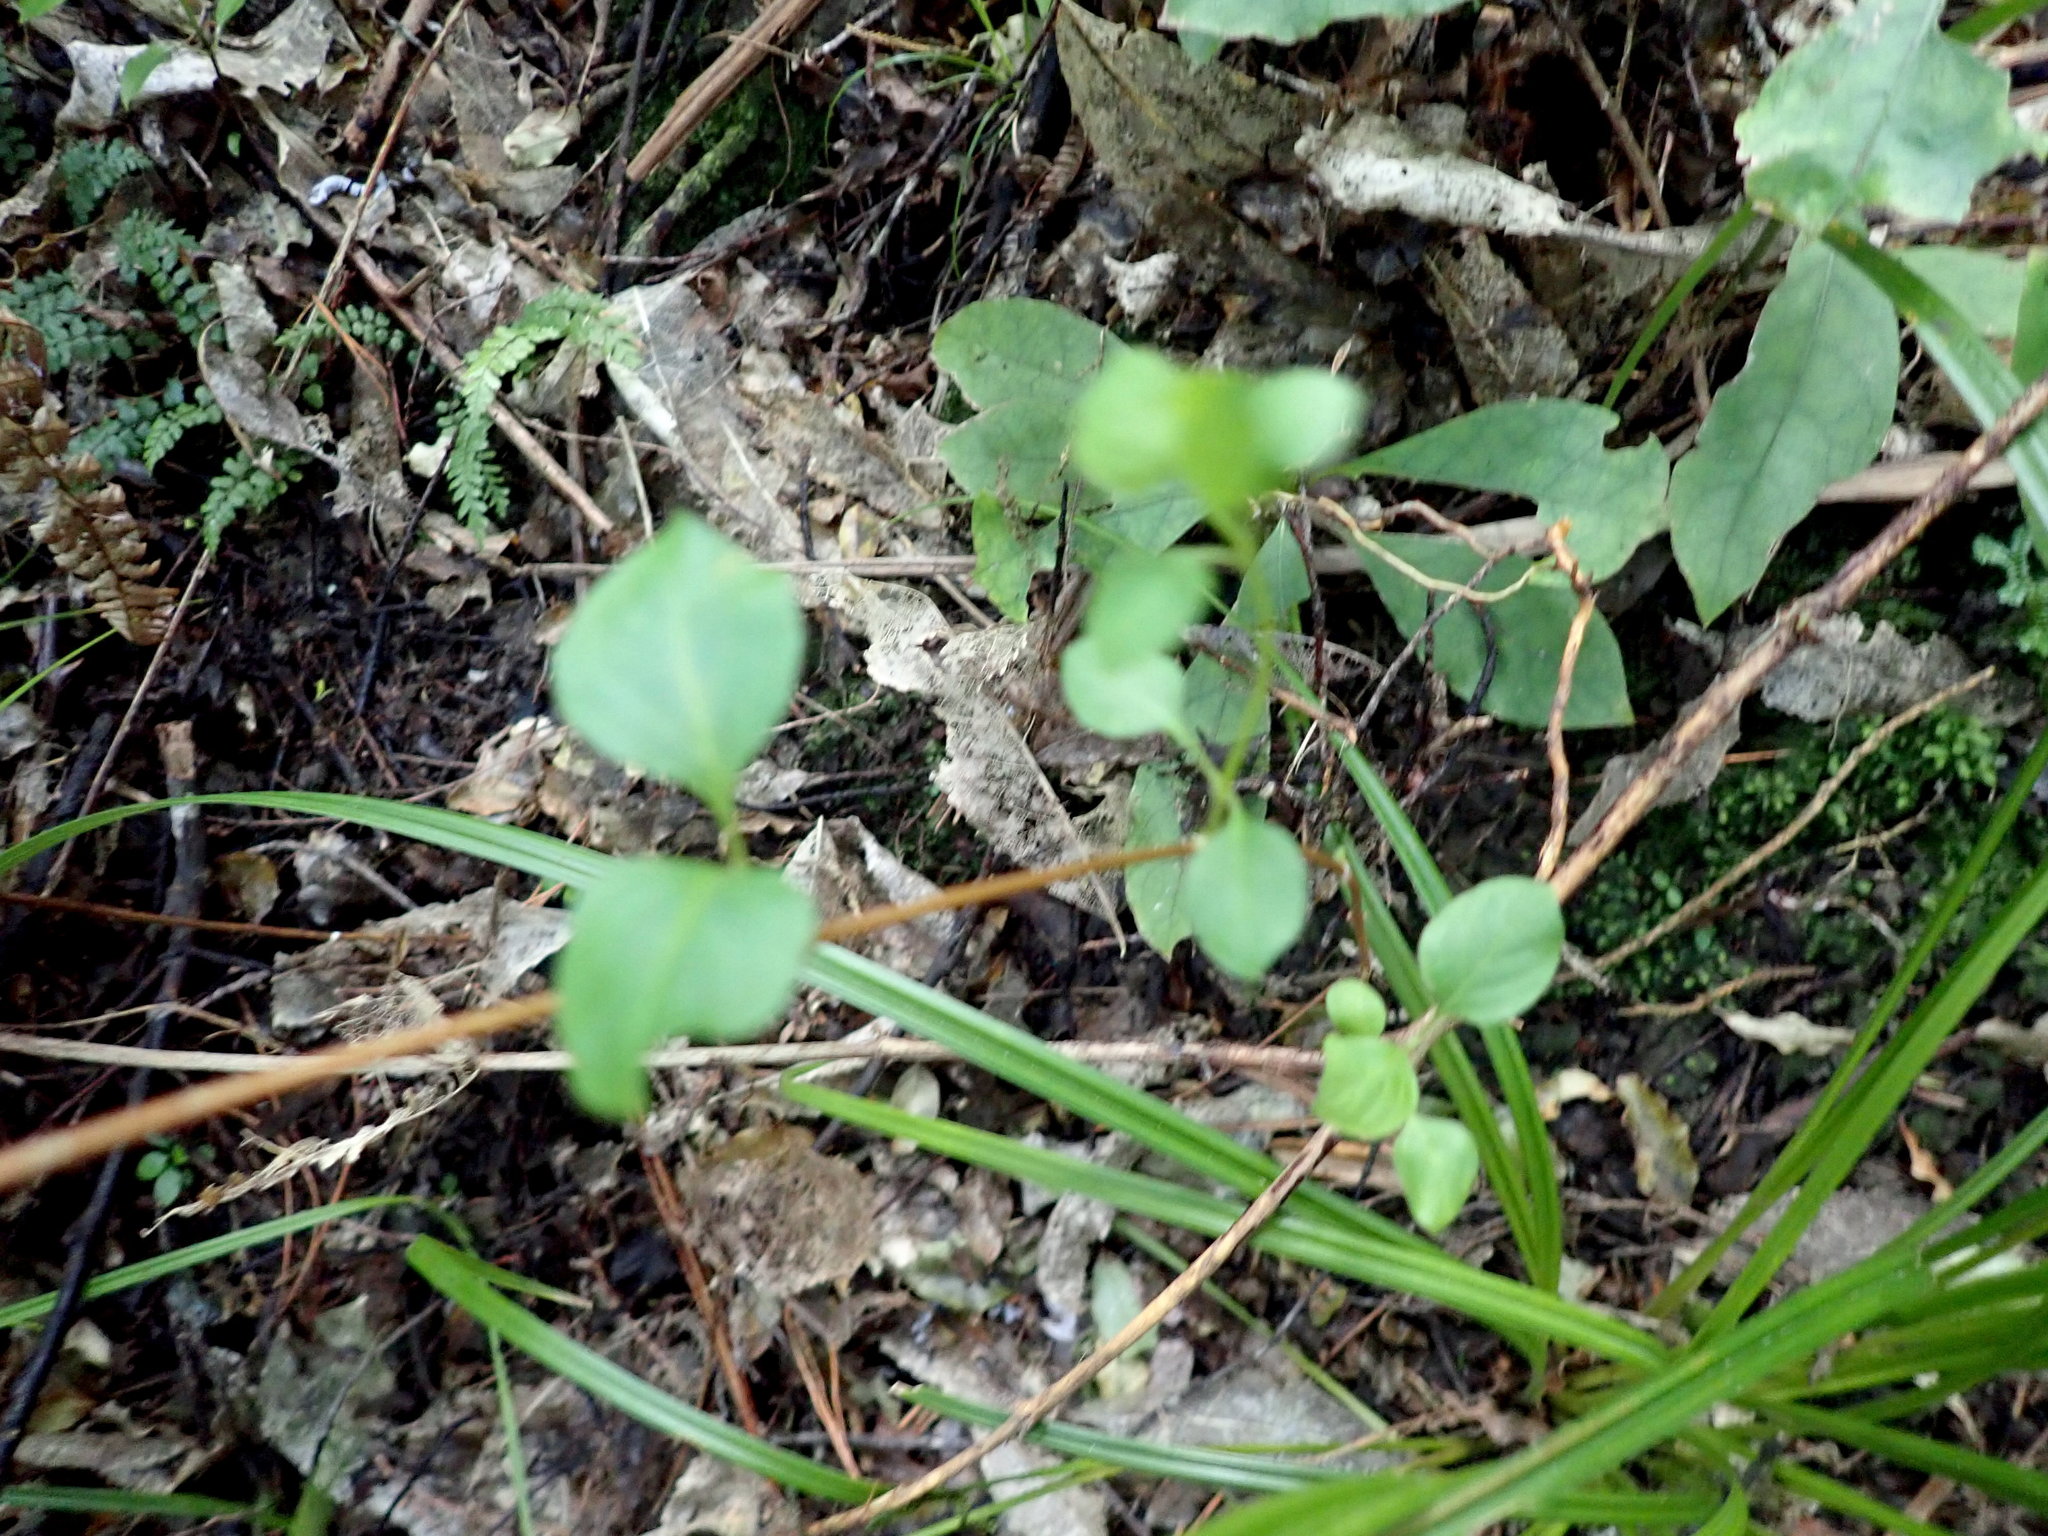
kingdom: Plantae
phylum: Tracheophyta
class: Magnoliopsida
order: Dipsacales
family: Caprifoliaceae
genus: Lonicera
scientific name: Lonicera japonica
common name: Japanese honeysuckle
